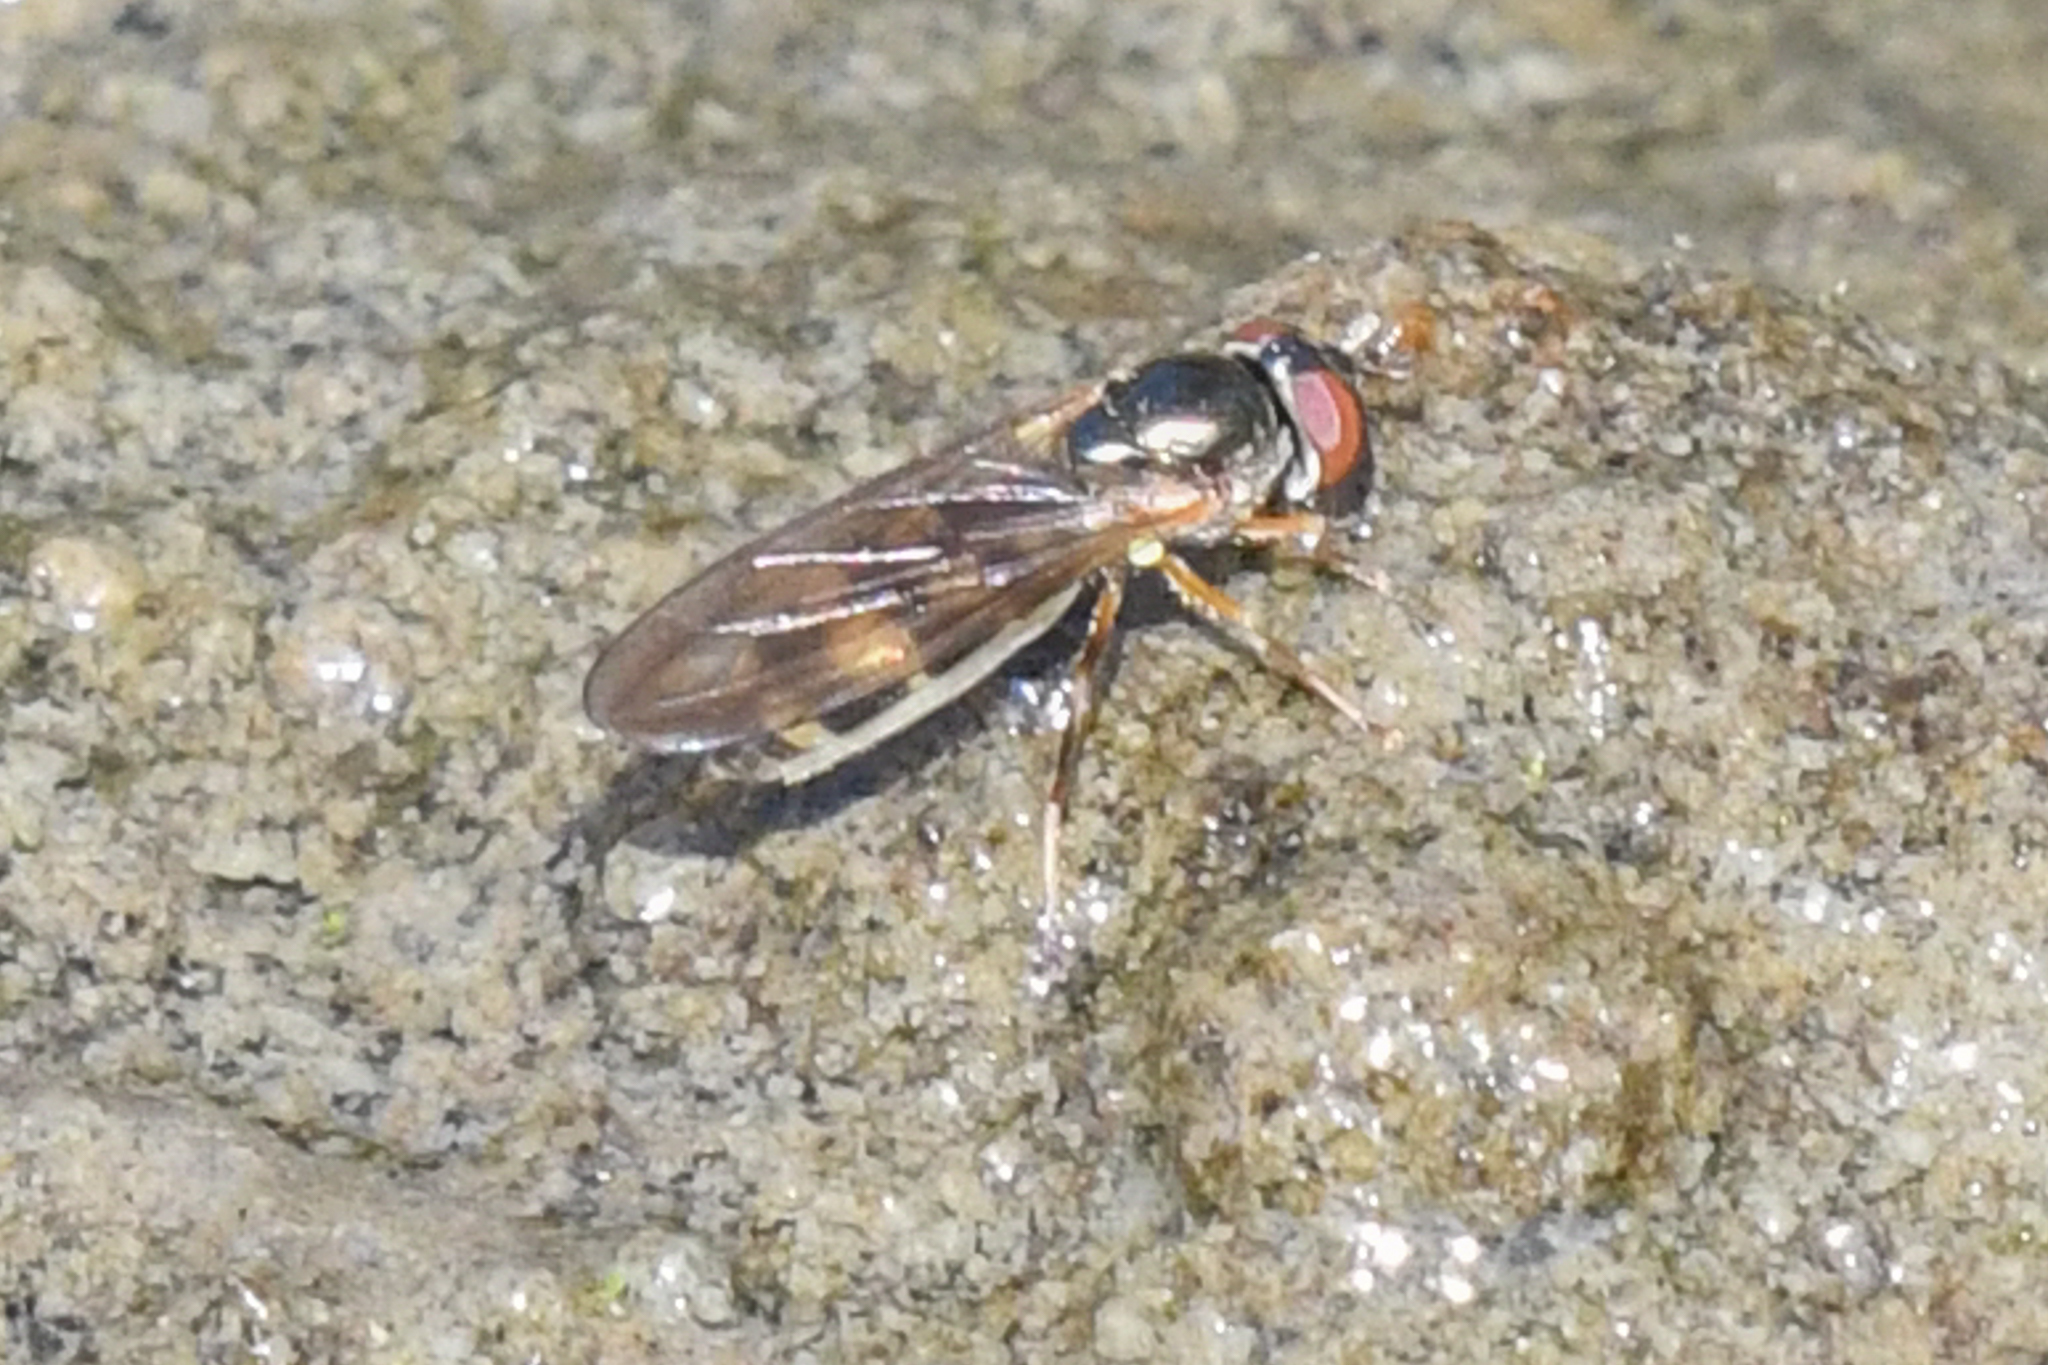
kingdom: Animalia
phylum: Arthropoda
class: Insecta
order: Diptera
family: Syrphidae
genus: Melanostoma
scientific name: Melanostoma mellina
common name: Hover fly
